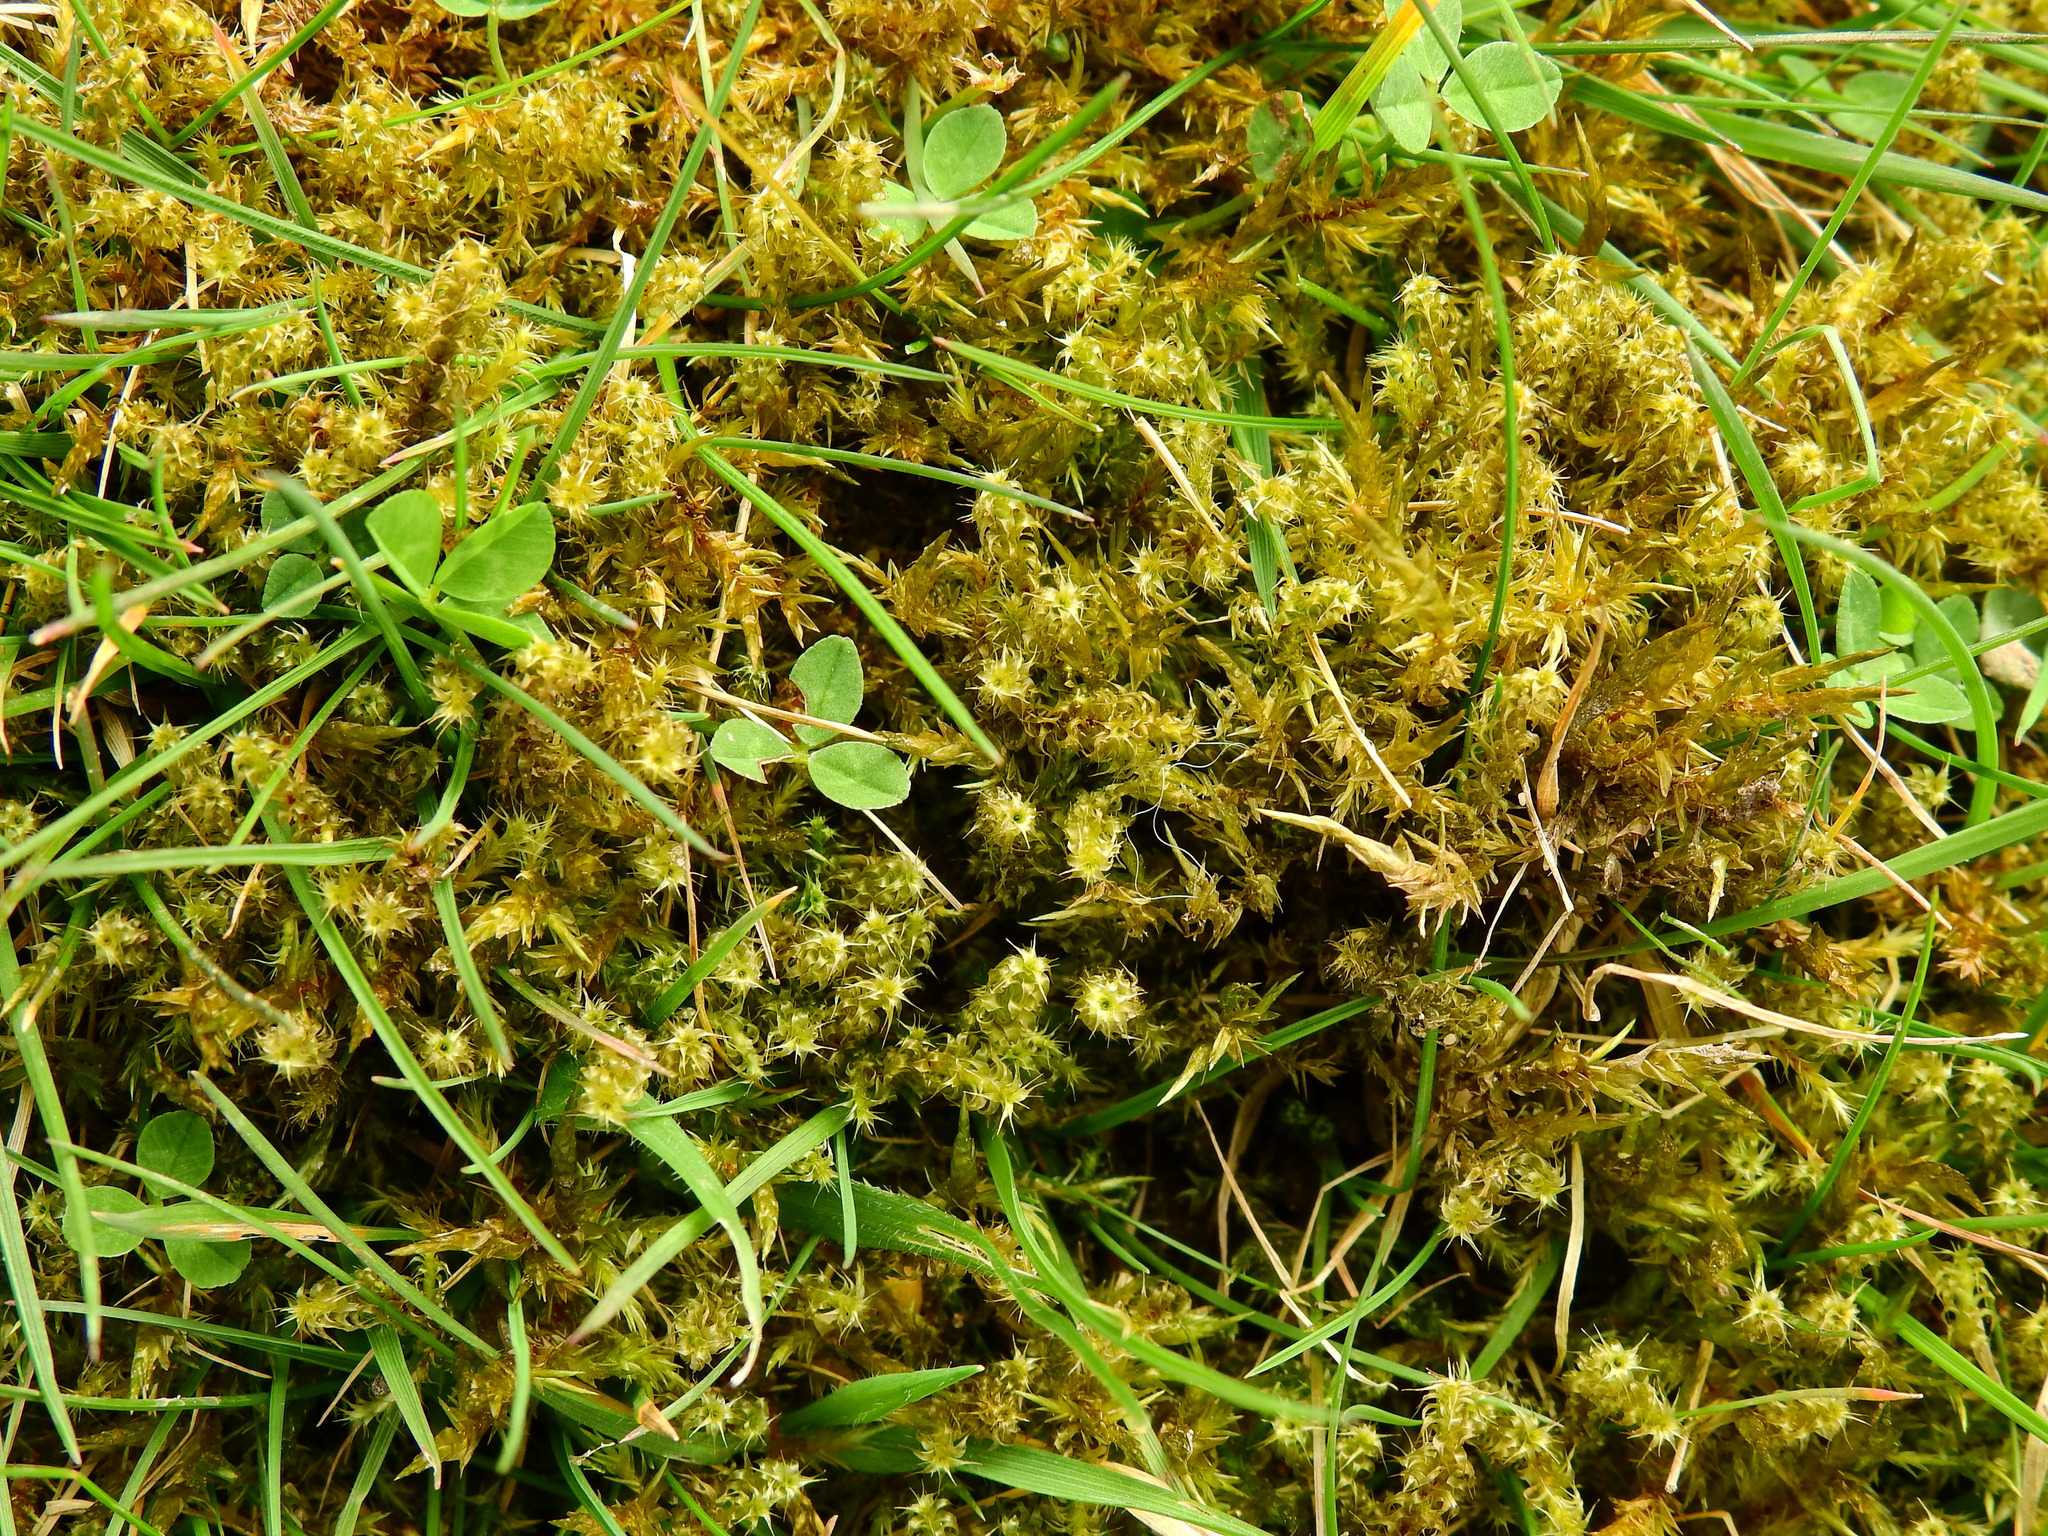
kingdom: Plantae
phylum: Bryophyta
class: Bryopsida
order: Hypnales
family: Hylocomiaceae
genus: Rhytidiadelphus
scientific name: Rhytidiadelphus squarrosus
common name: Springy turf-moss
